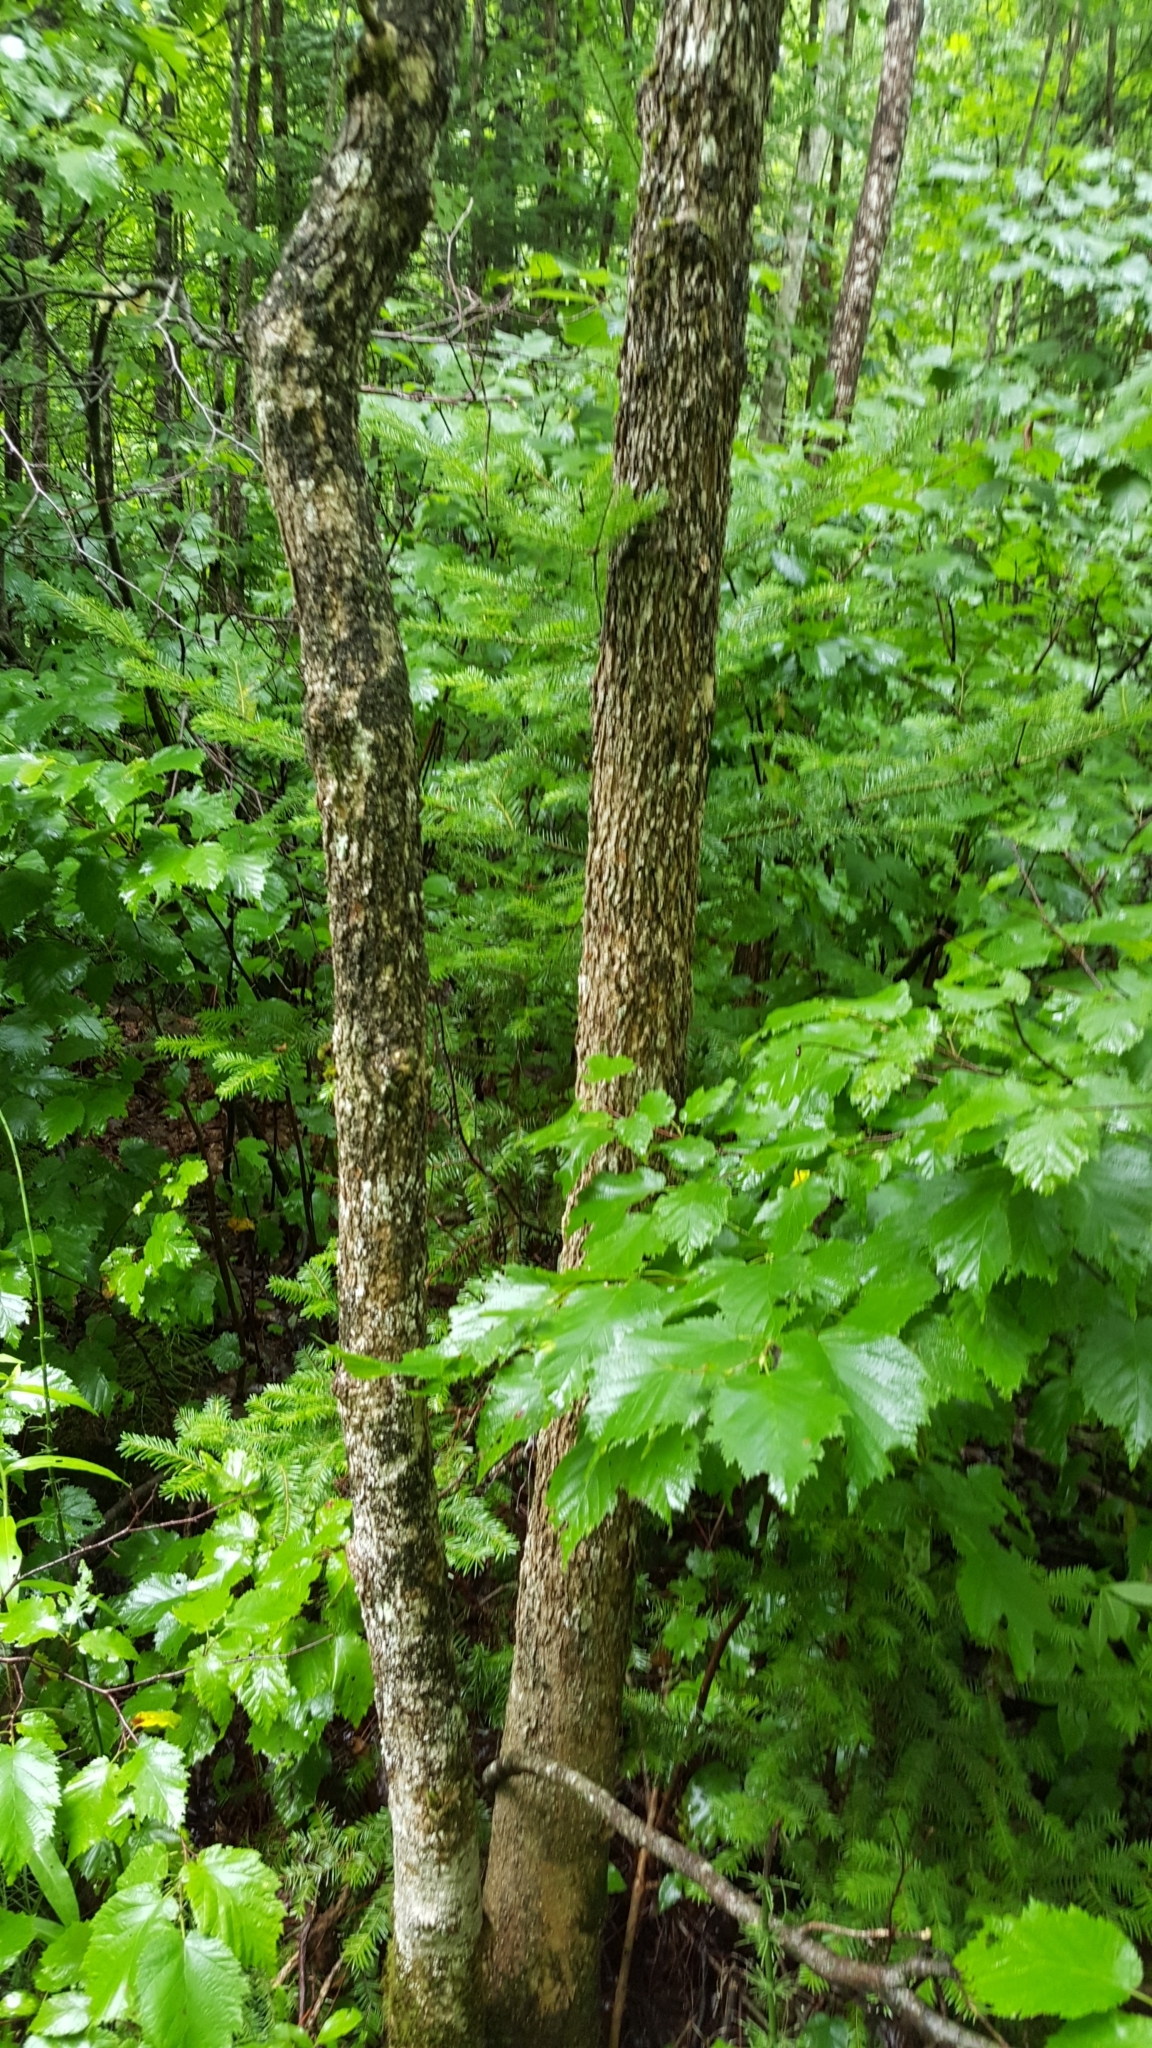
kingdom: Plantae
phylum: Tracheophyta
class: Magnoliopsida
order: Lamiales
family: Oleaceae
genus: Fraxinus
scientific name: Fraxinus nigra
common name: Black ash
